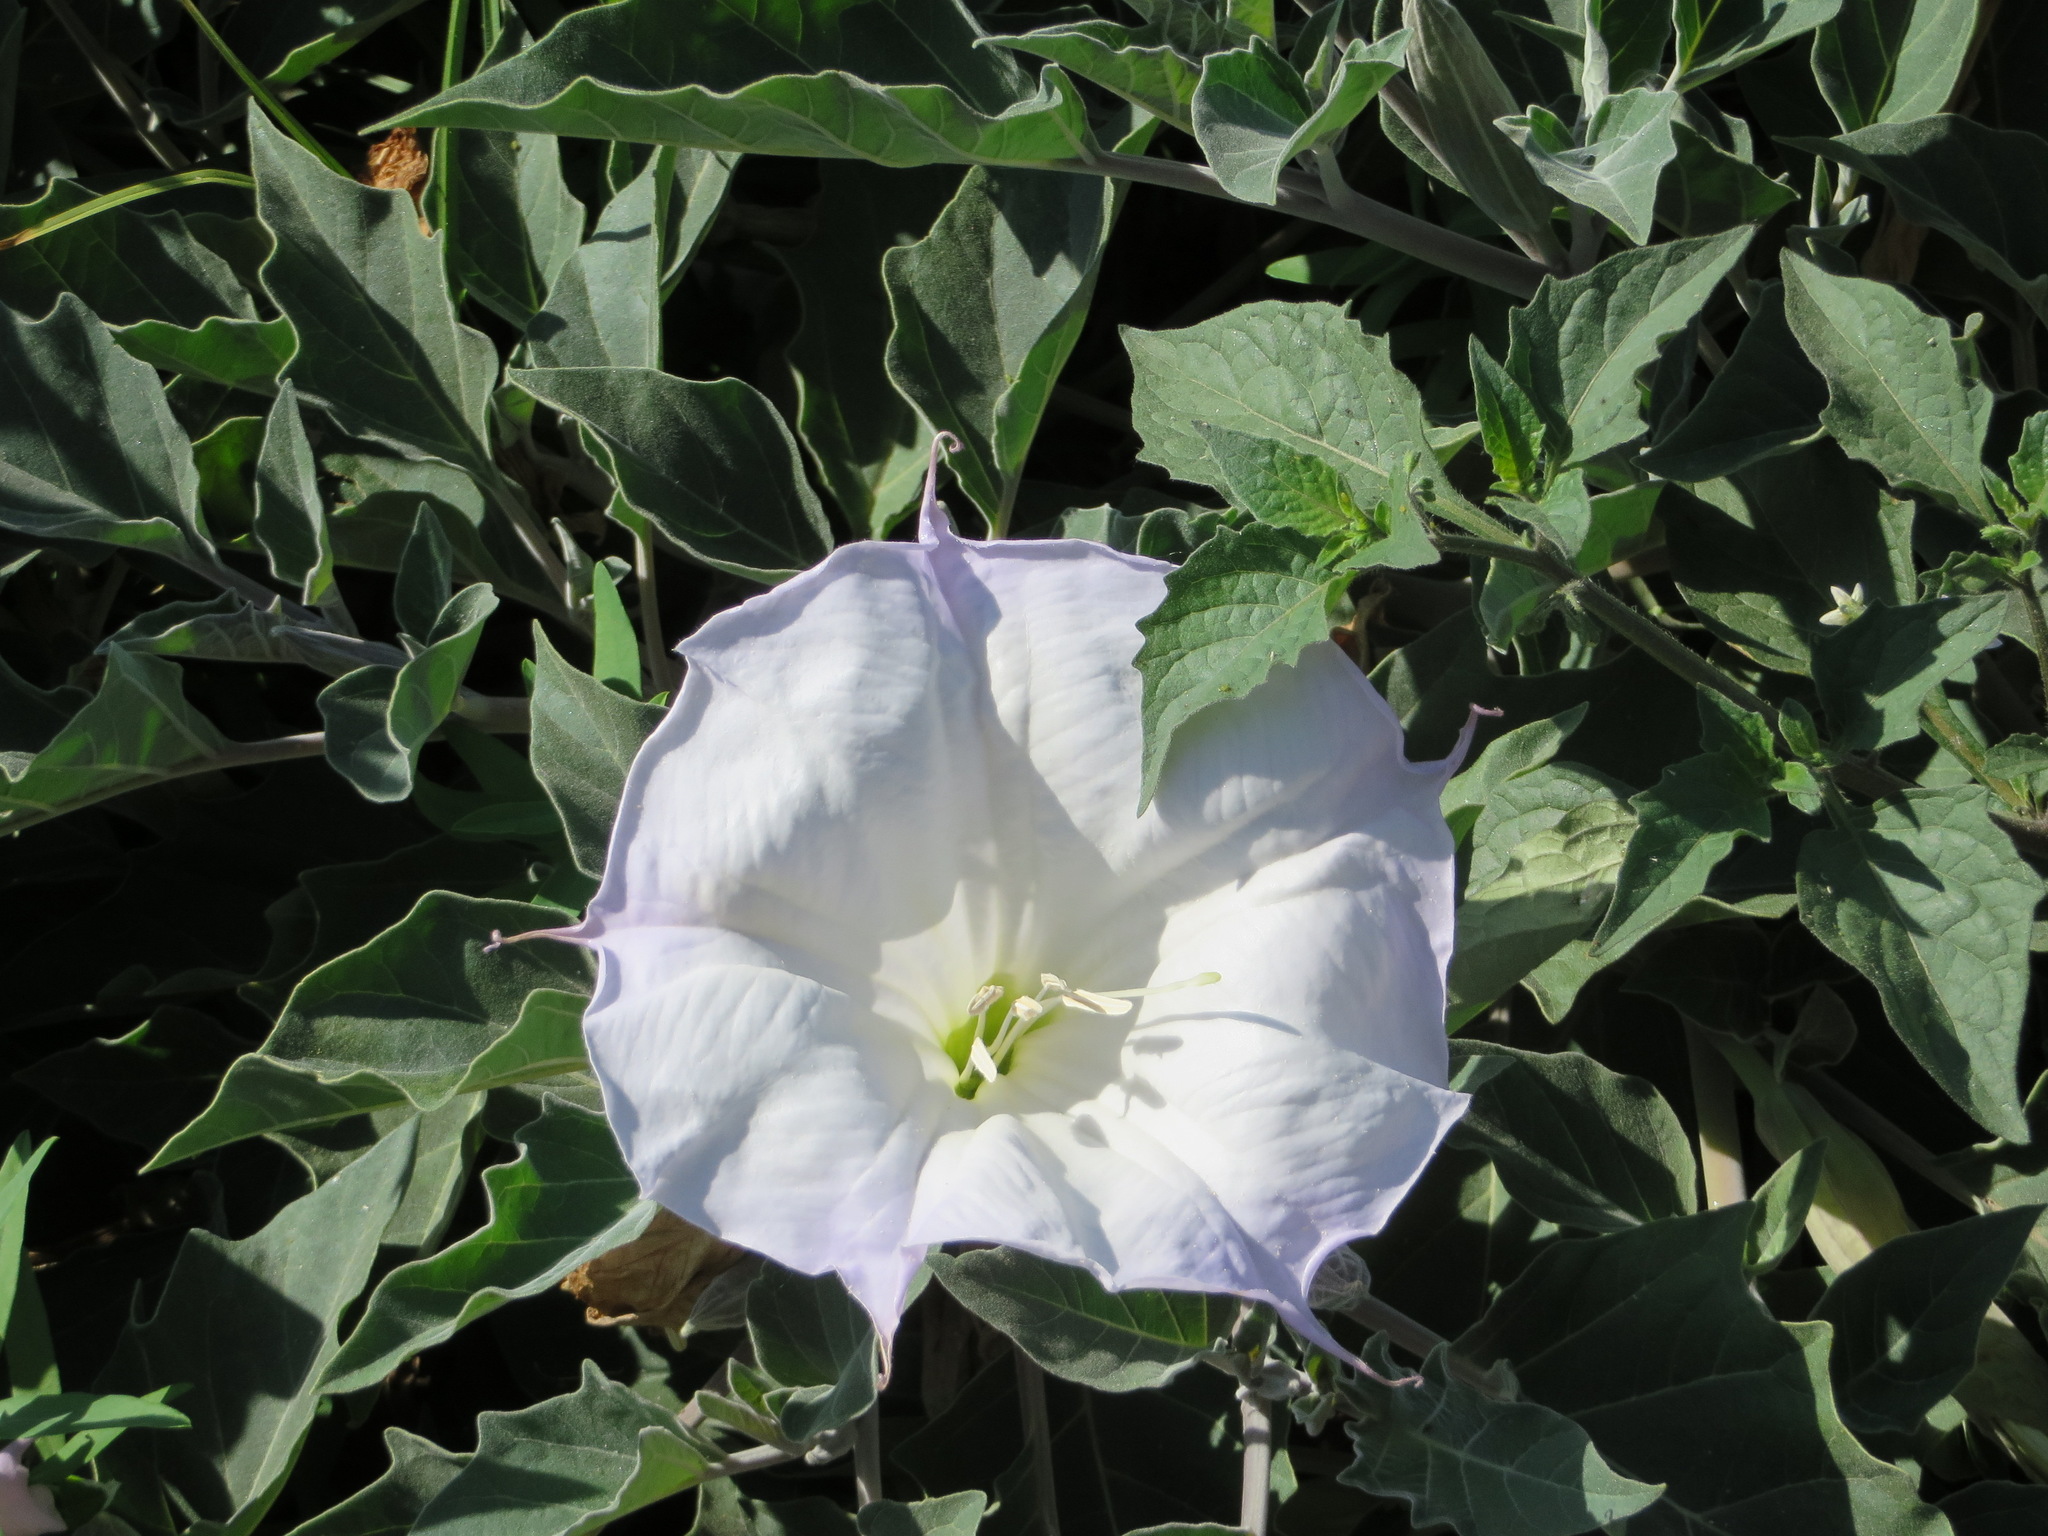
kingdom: Plantae
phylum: Tracheophyta
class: Magnoliopsida
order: Solanales
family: Solanaceae
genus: Datura
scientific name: Datura wrightii
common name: Sacred thorn-apple
